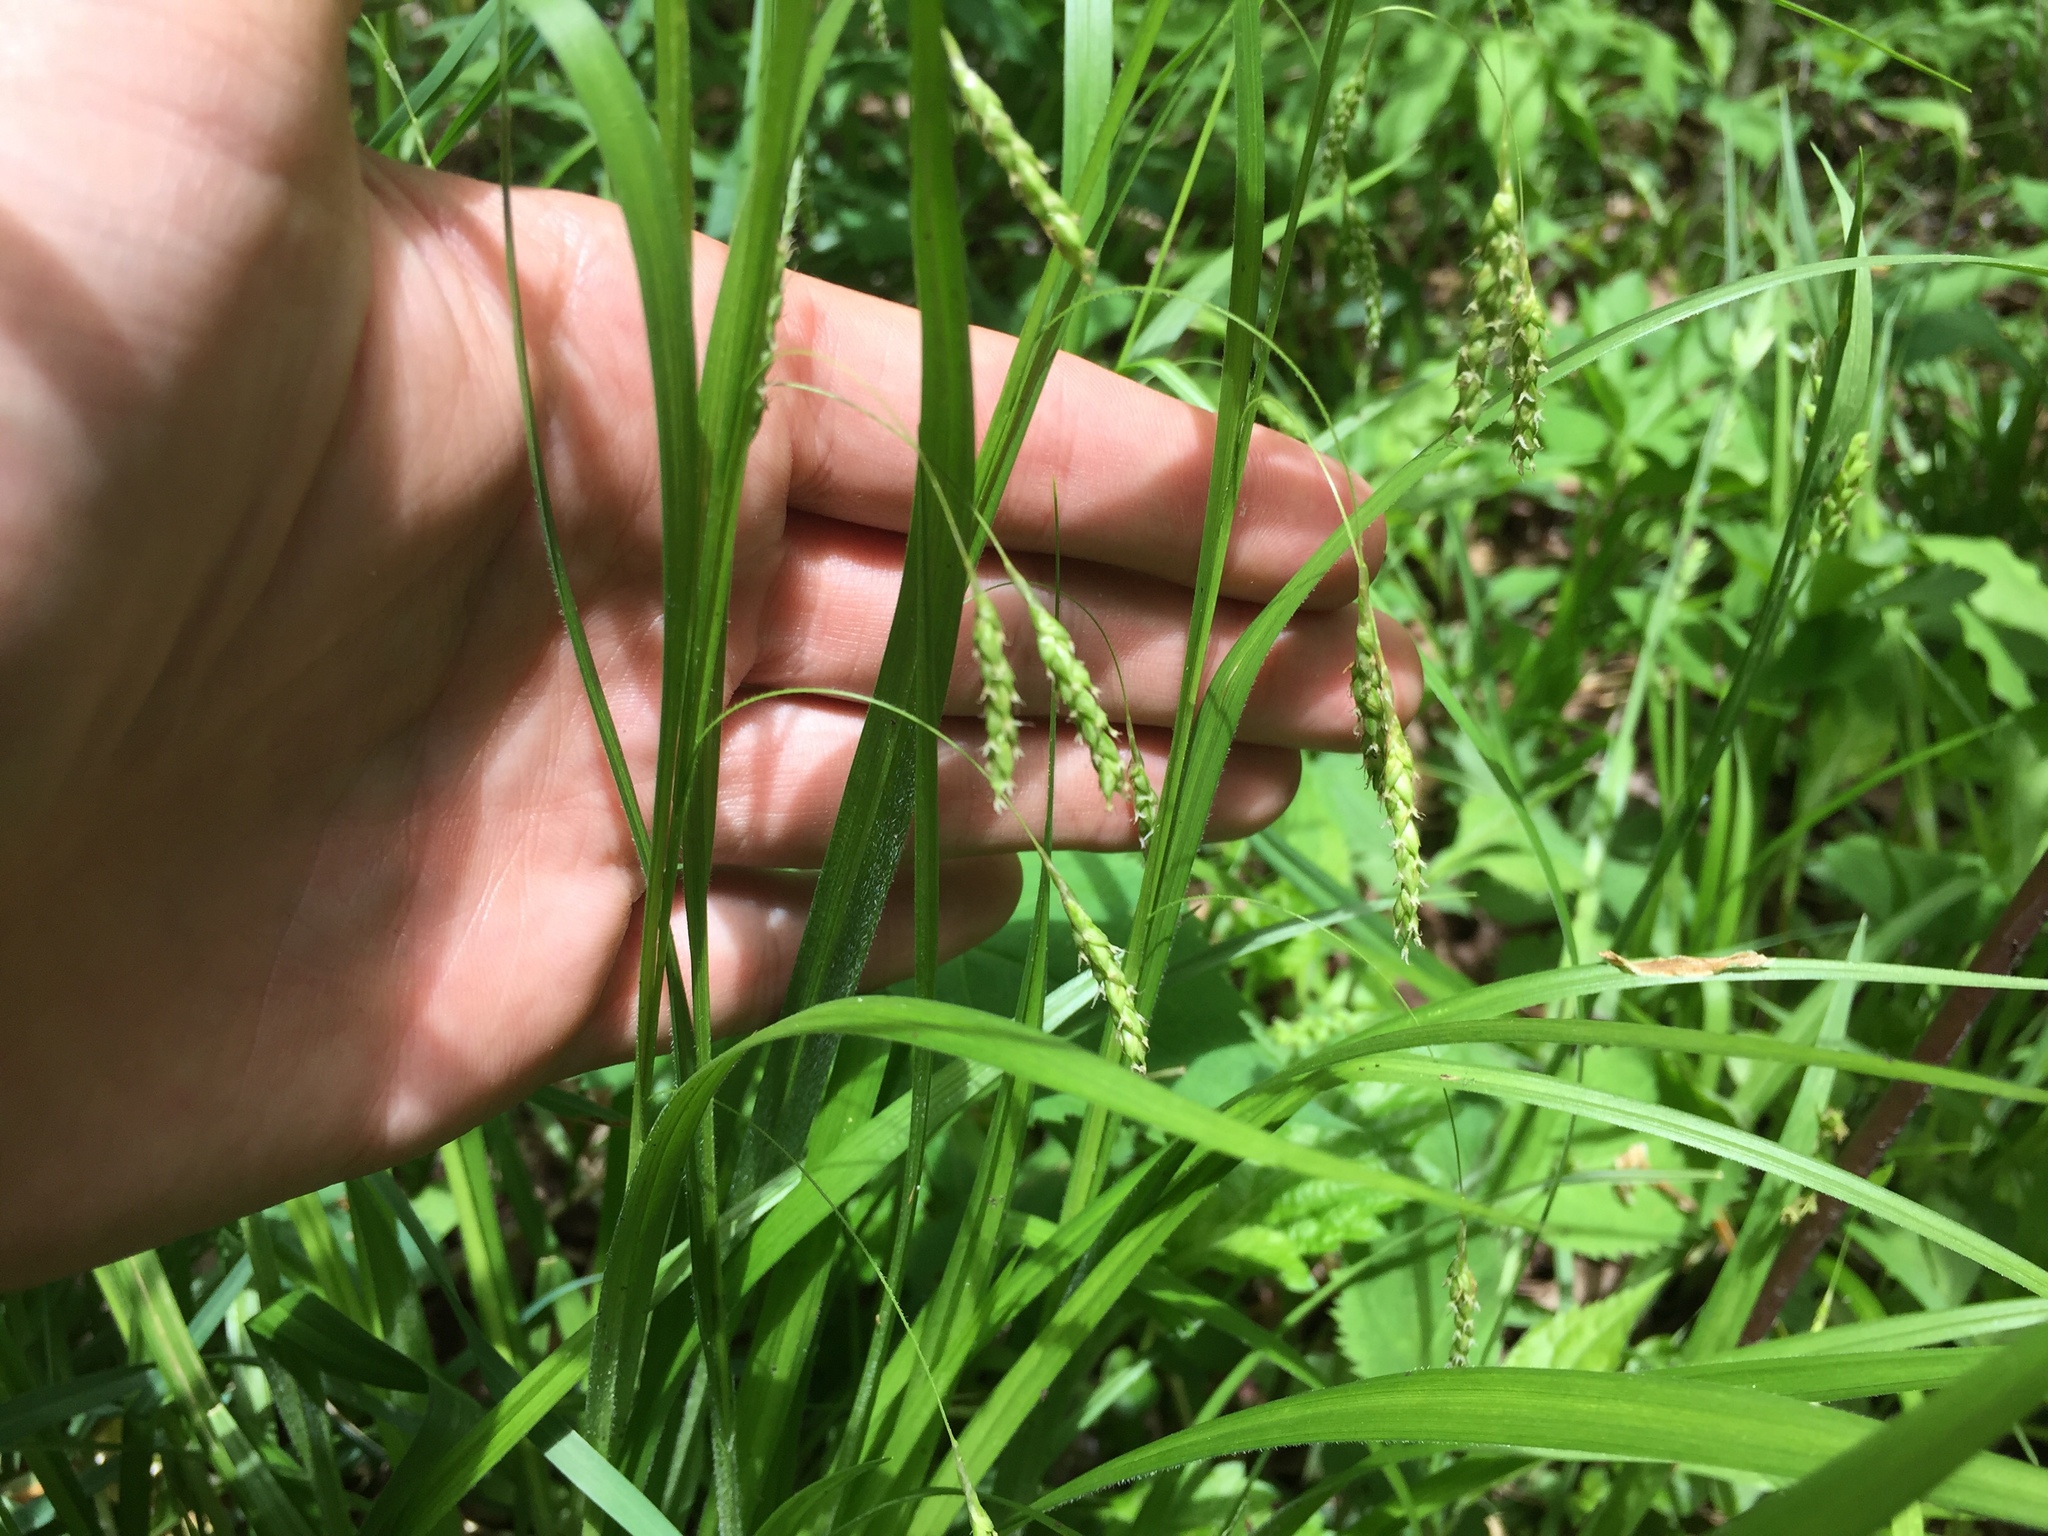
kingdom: Plantae
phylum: Tracheophyta
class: Liliopsida
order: Poales
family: Cyperaceae
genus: Carex
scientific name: Carex formosa
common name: Awnless graceful sedge
